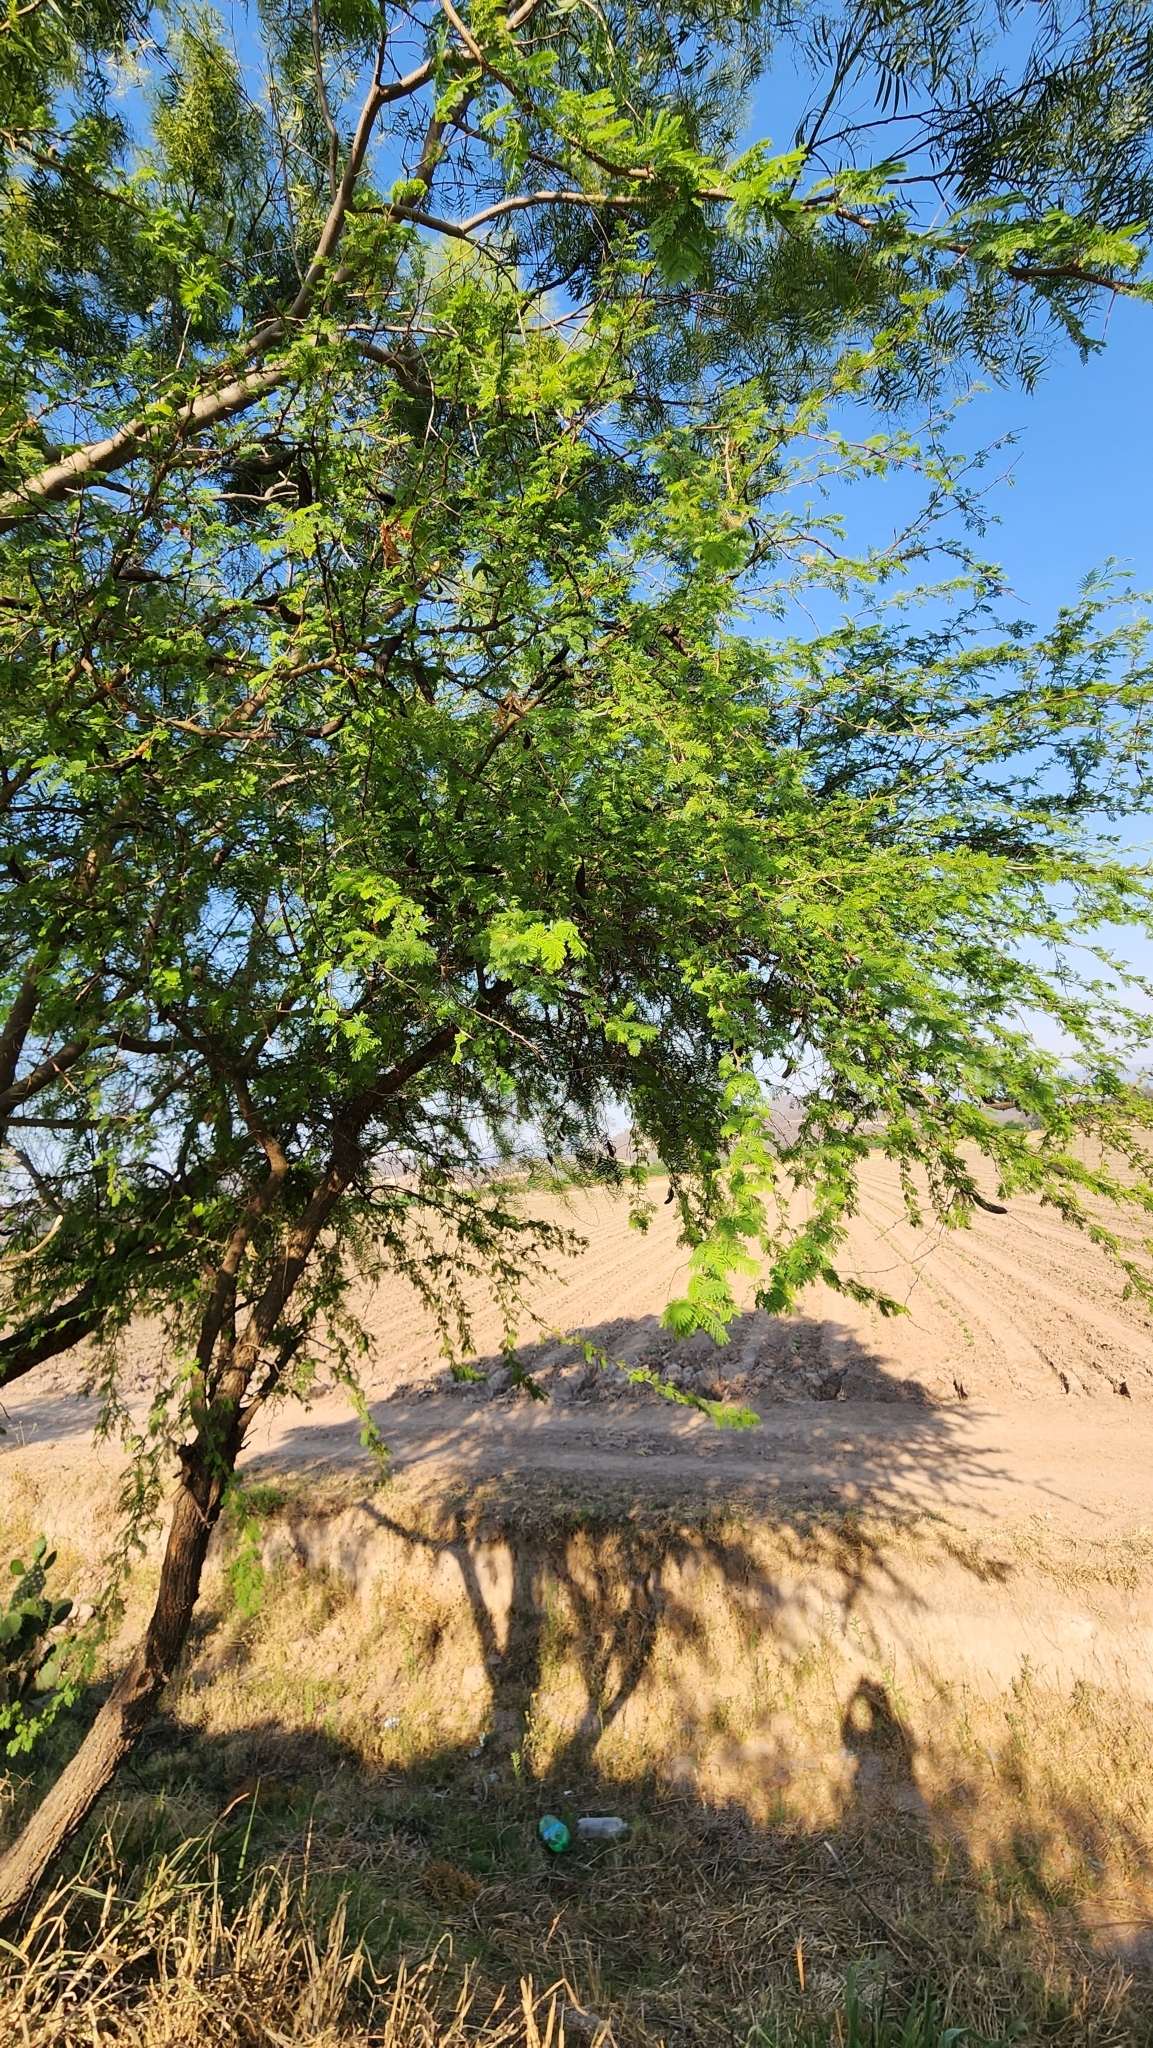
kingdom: Plantae
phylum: Tracheophyta
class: Magnoliopsida
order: Fabales
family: Fabaceae
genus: Vachellia
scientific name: Vachellia caven
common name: Roman cassie
